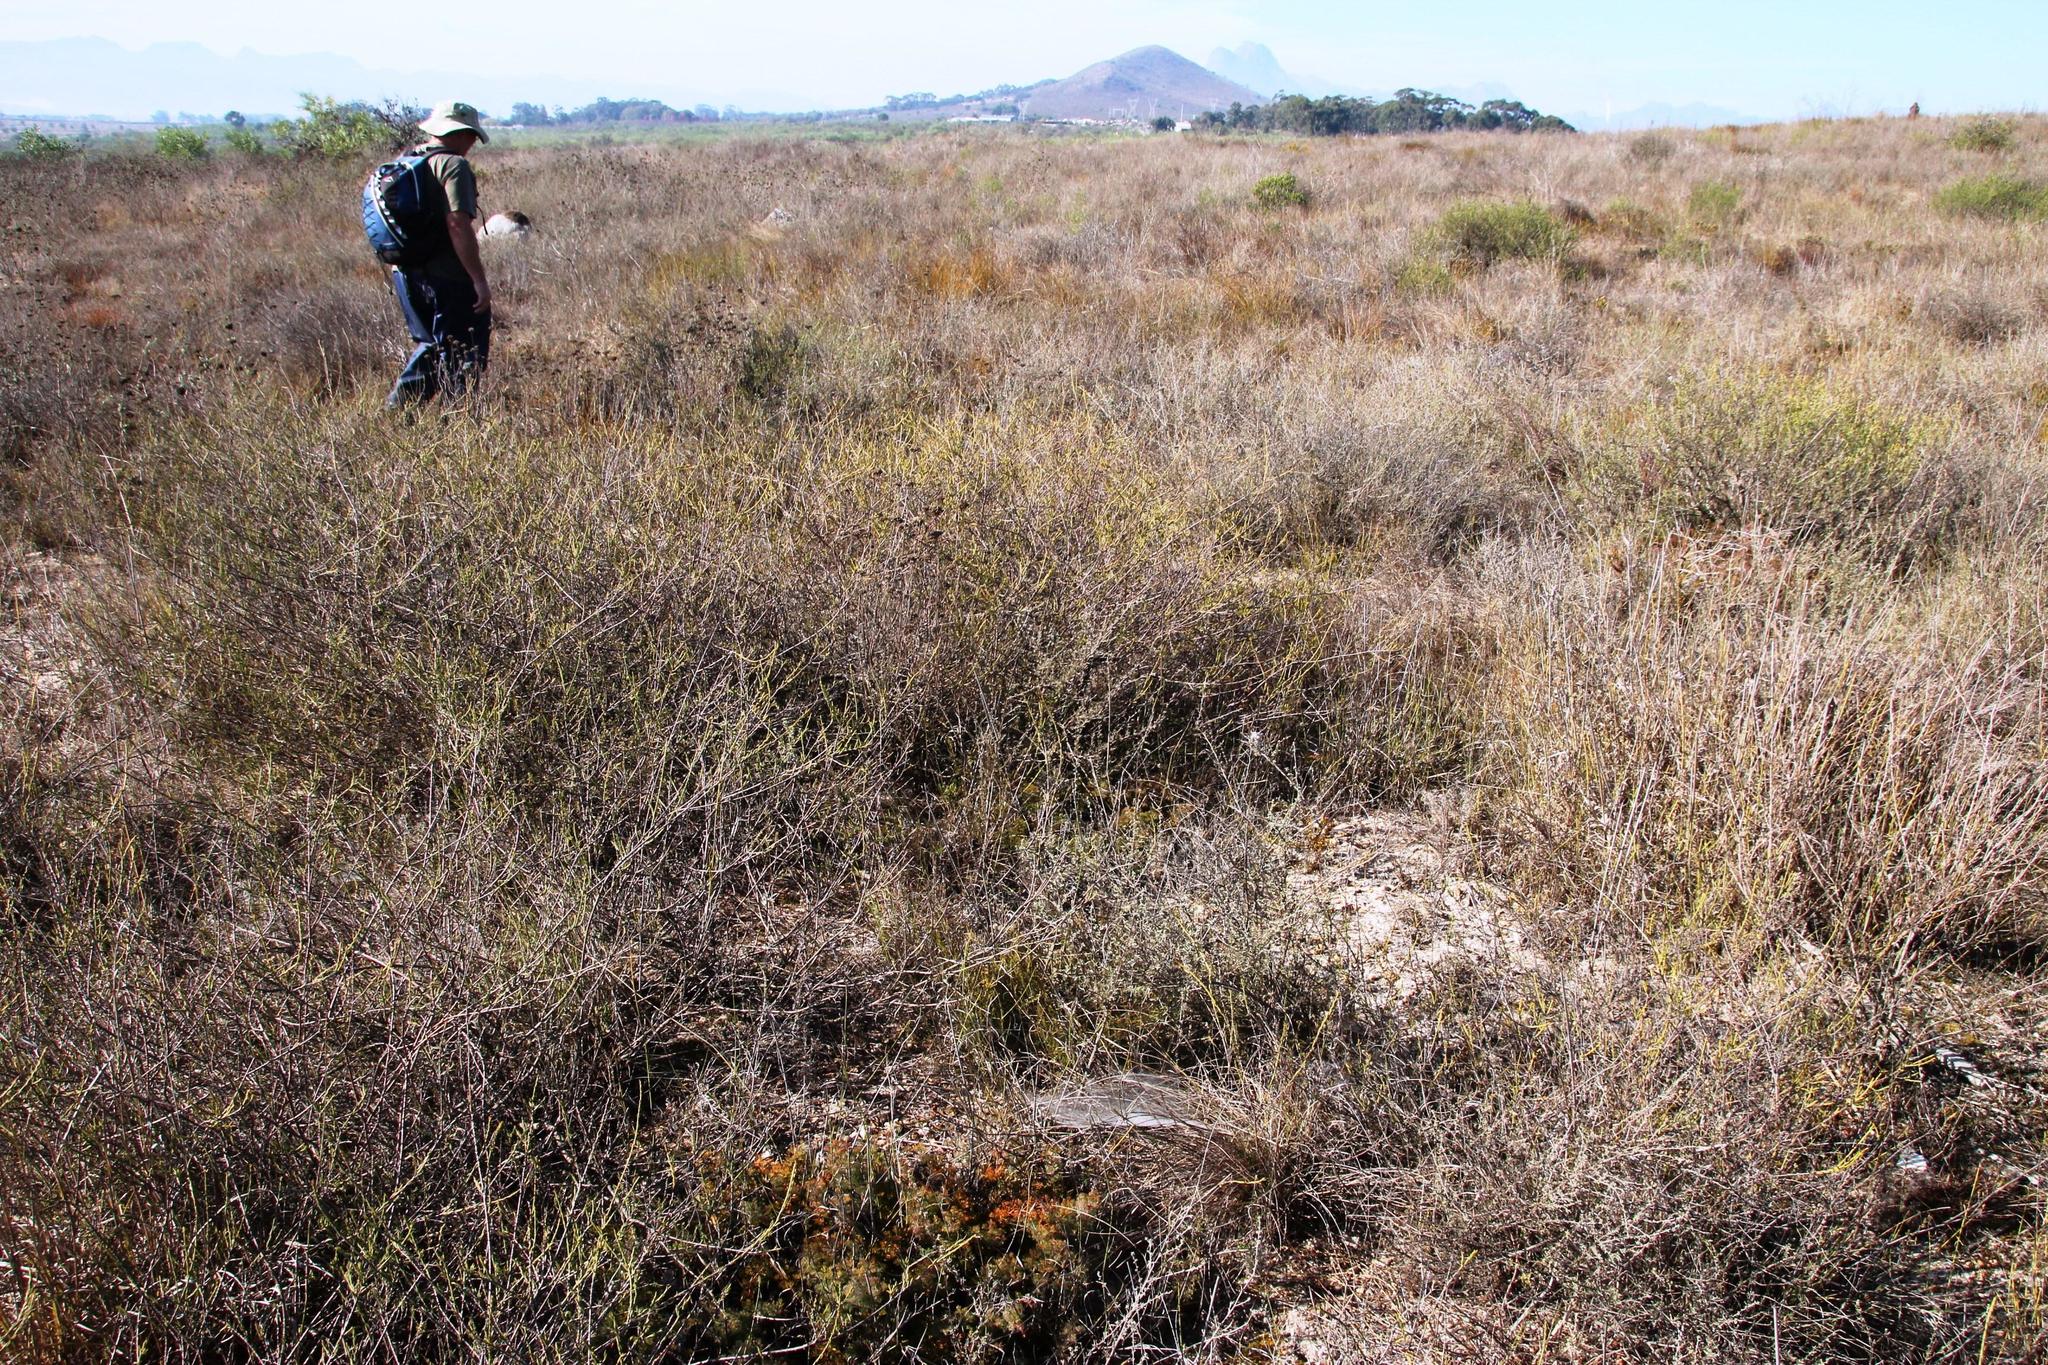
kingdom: Plantae
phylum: Tracheophyta
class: Magnoliopsida
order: Proteales
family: Proteaceae
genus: Serruria
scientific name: Serruria incrassata
